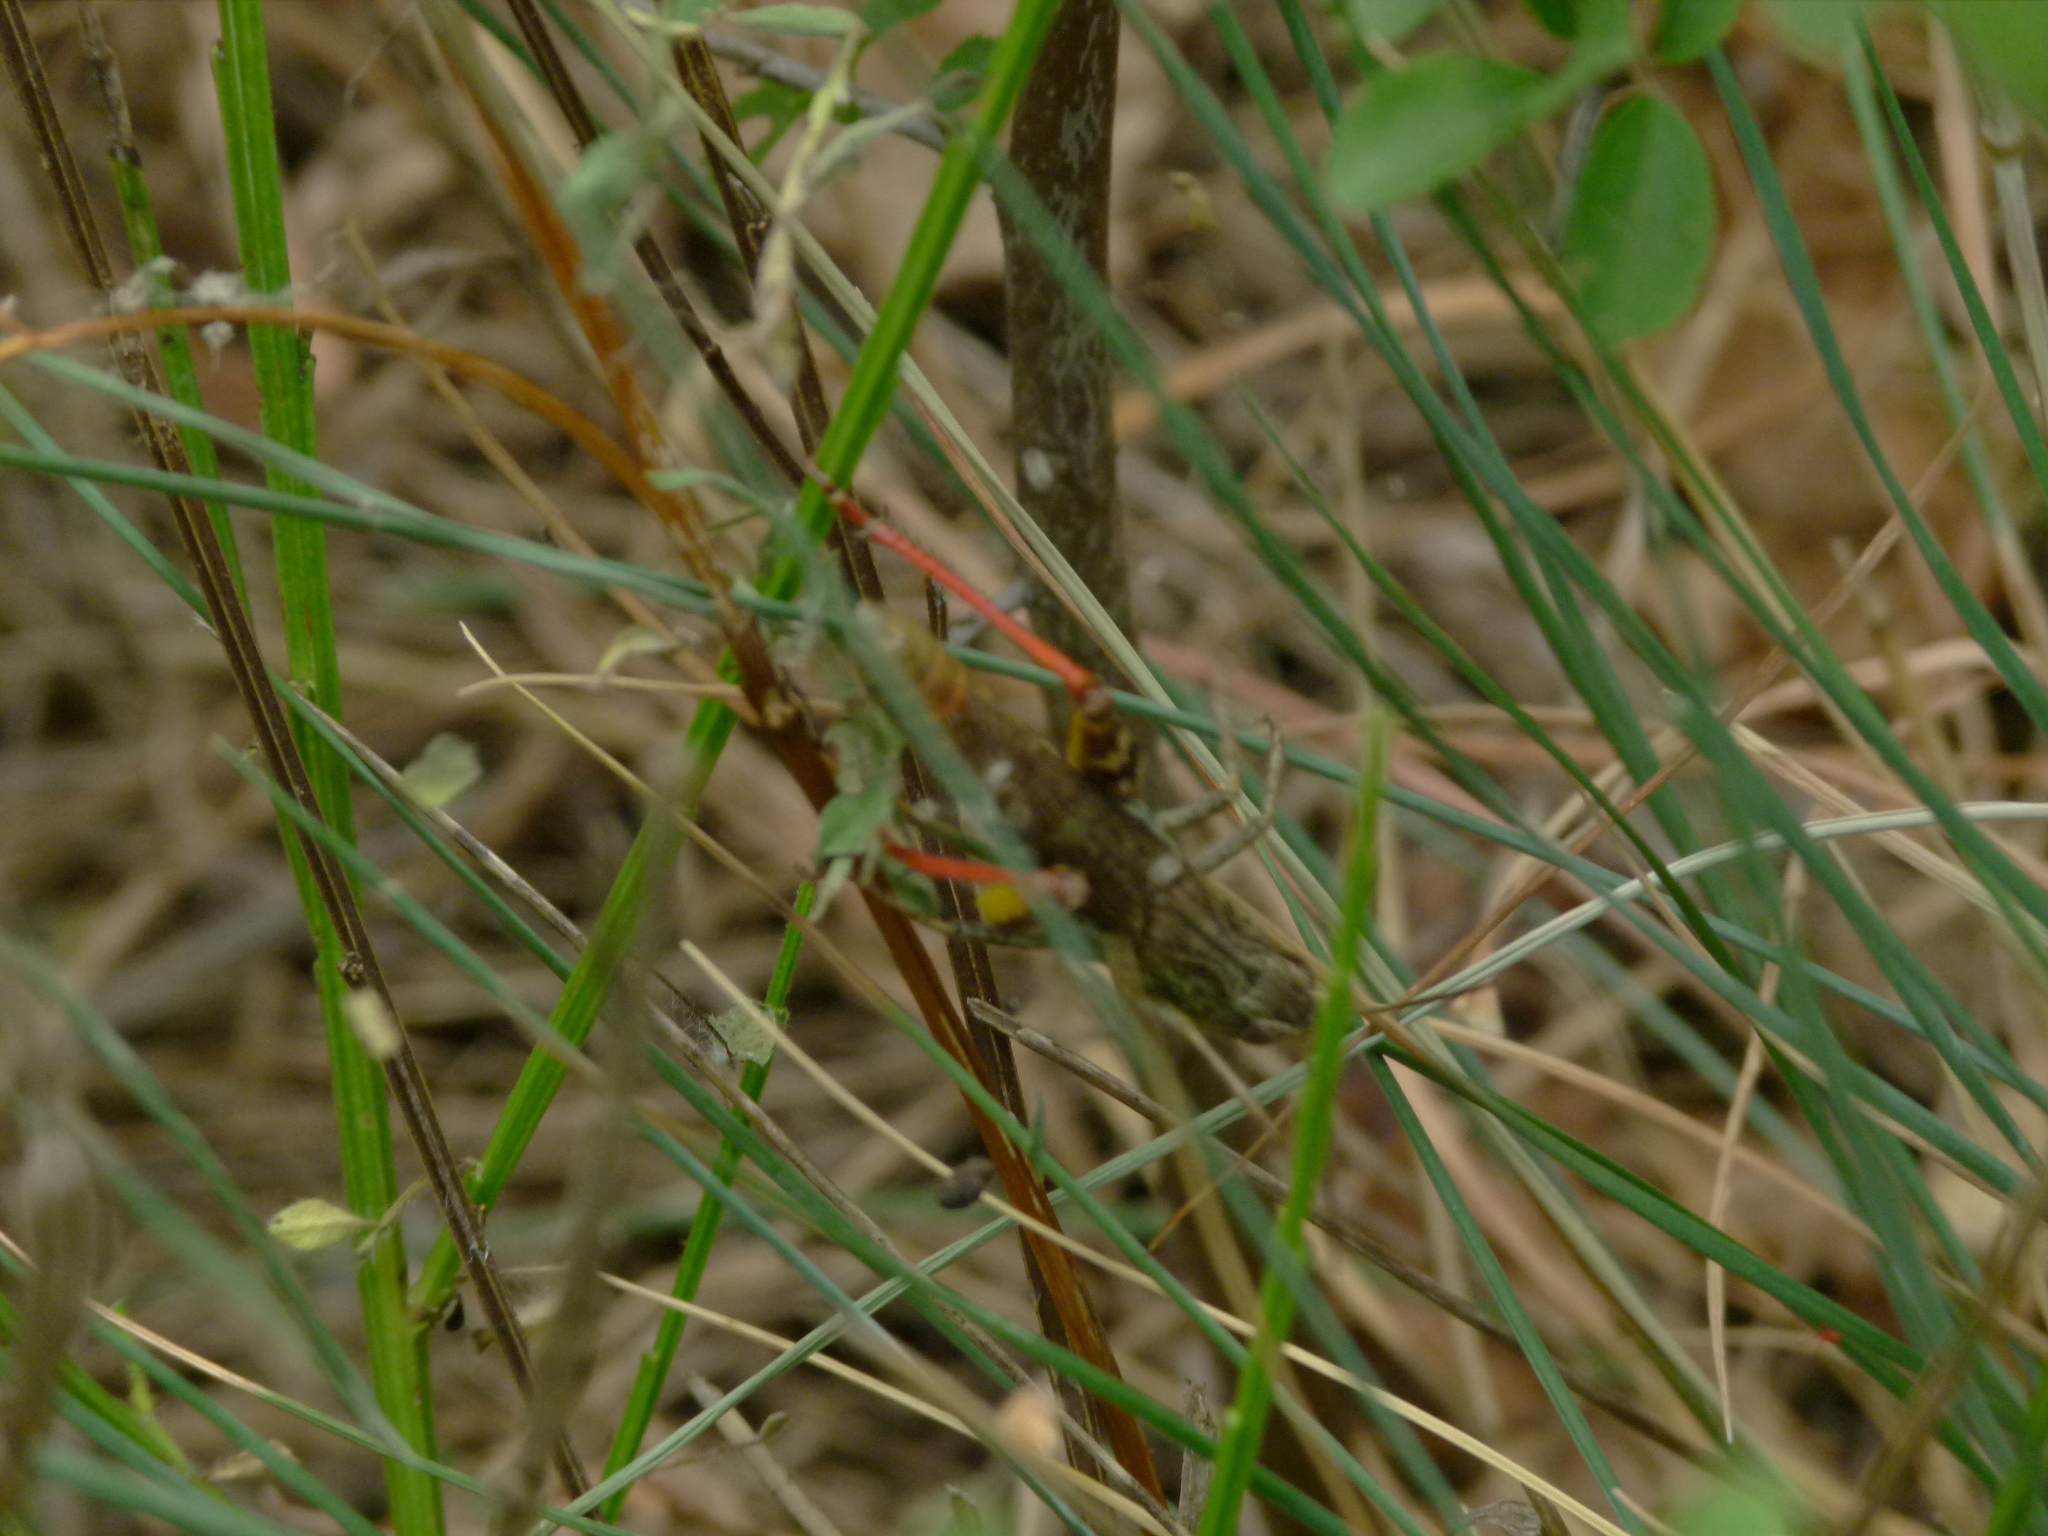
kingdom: Animalia
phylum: Arthropoda
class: Insecta
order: Orthoptera
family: Acrididae
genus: Chorthippus
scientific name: Chorthippus saulcyi
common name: French grasshopper
